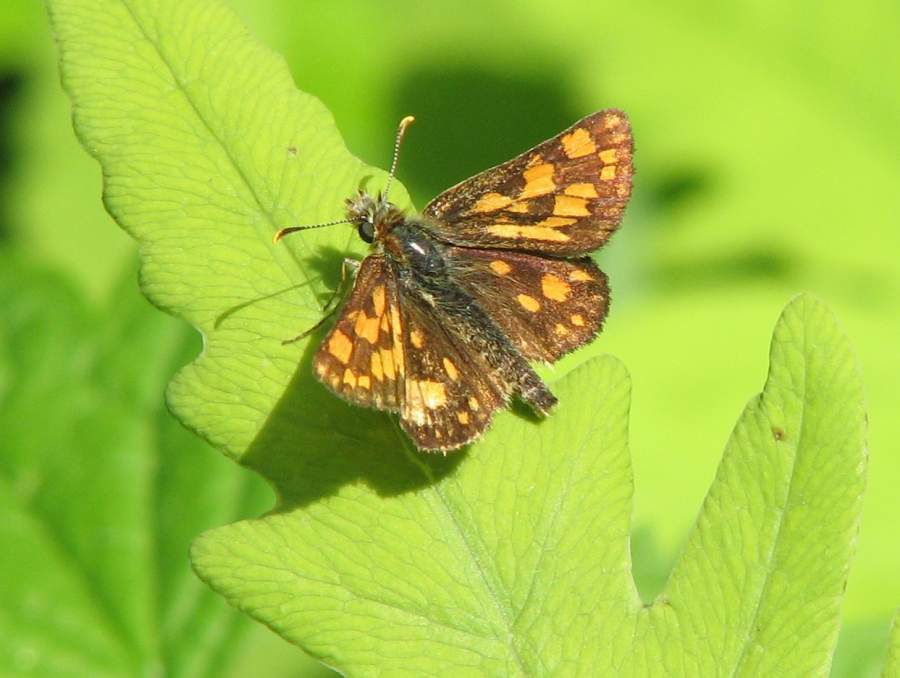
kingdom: Animalia
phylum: Arthropoda
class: Insecta
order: Lepidoptera
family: Hesperiidae
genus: Carterocephalus
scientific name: Carterocephalus mandan
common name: Arctic skipperling
